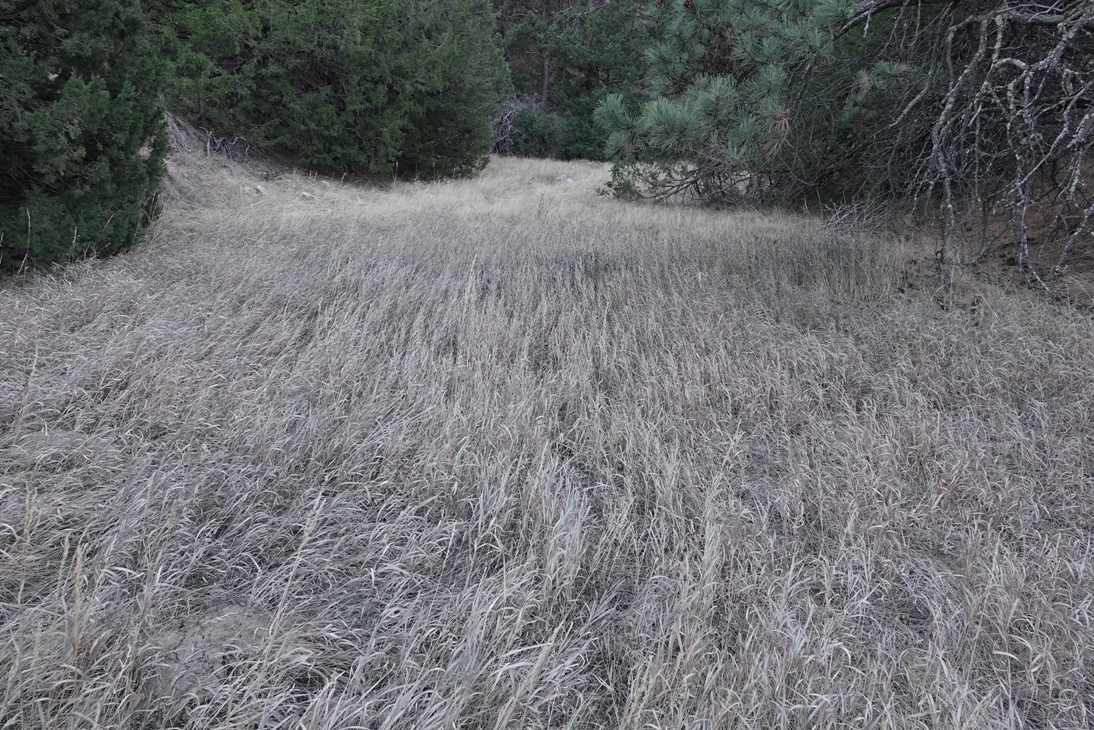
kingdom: Plantae
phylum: Tracheophyta
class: Liliopsida
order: Poales
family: Poaceae
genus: Bromus
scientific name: Bromus inermis
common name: Smooth brome
